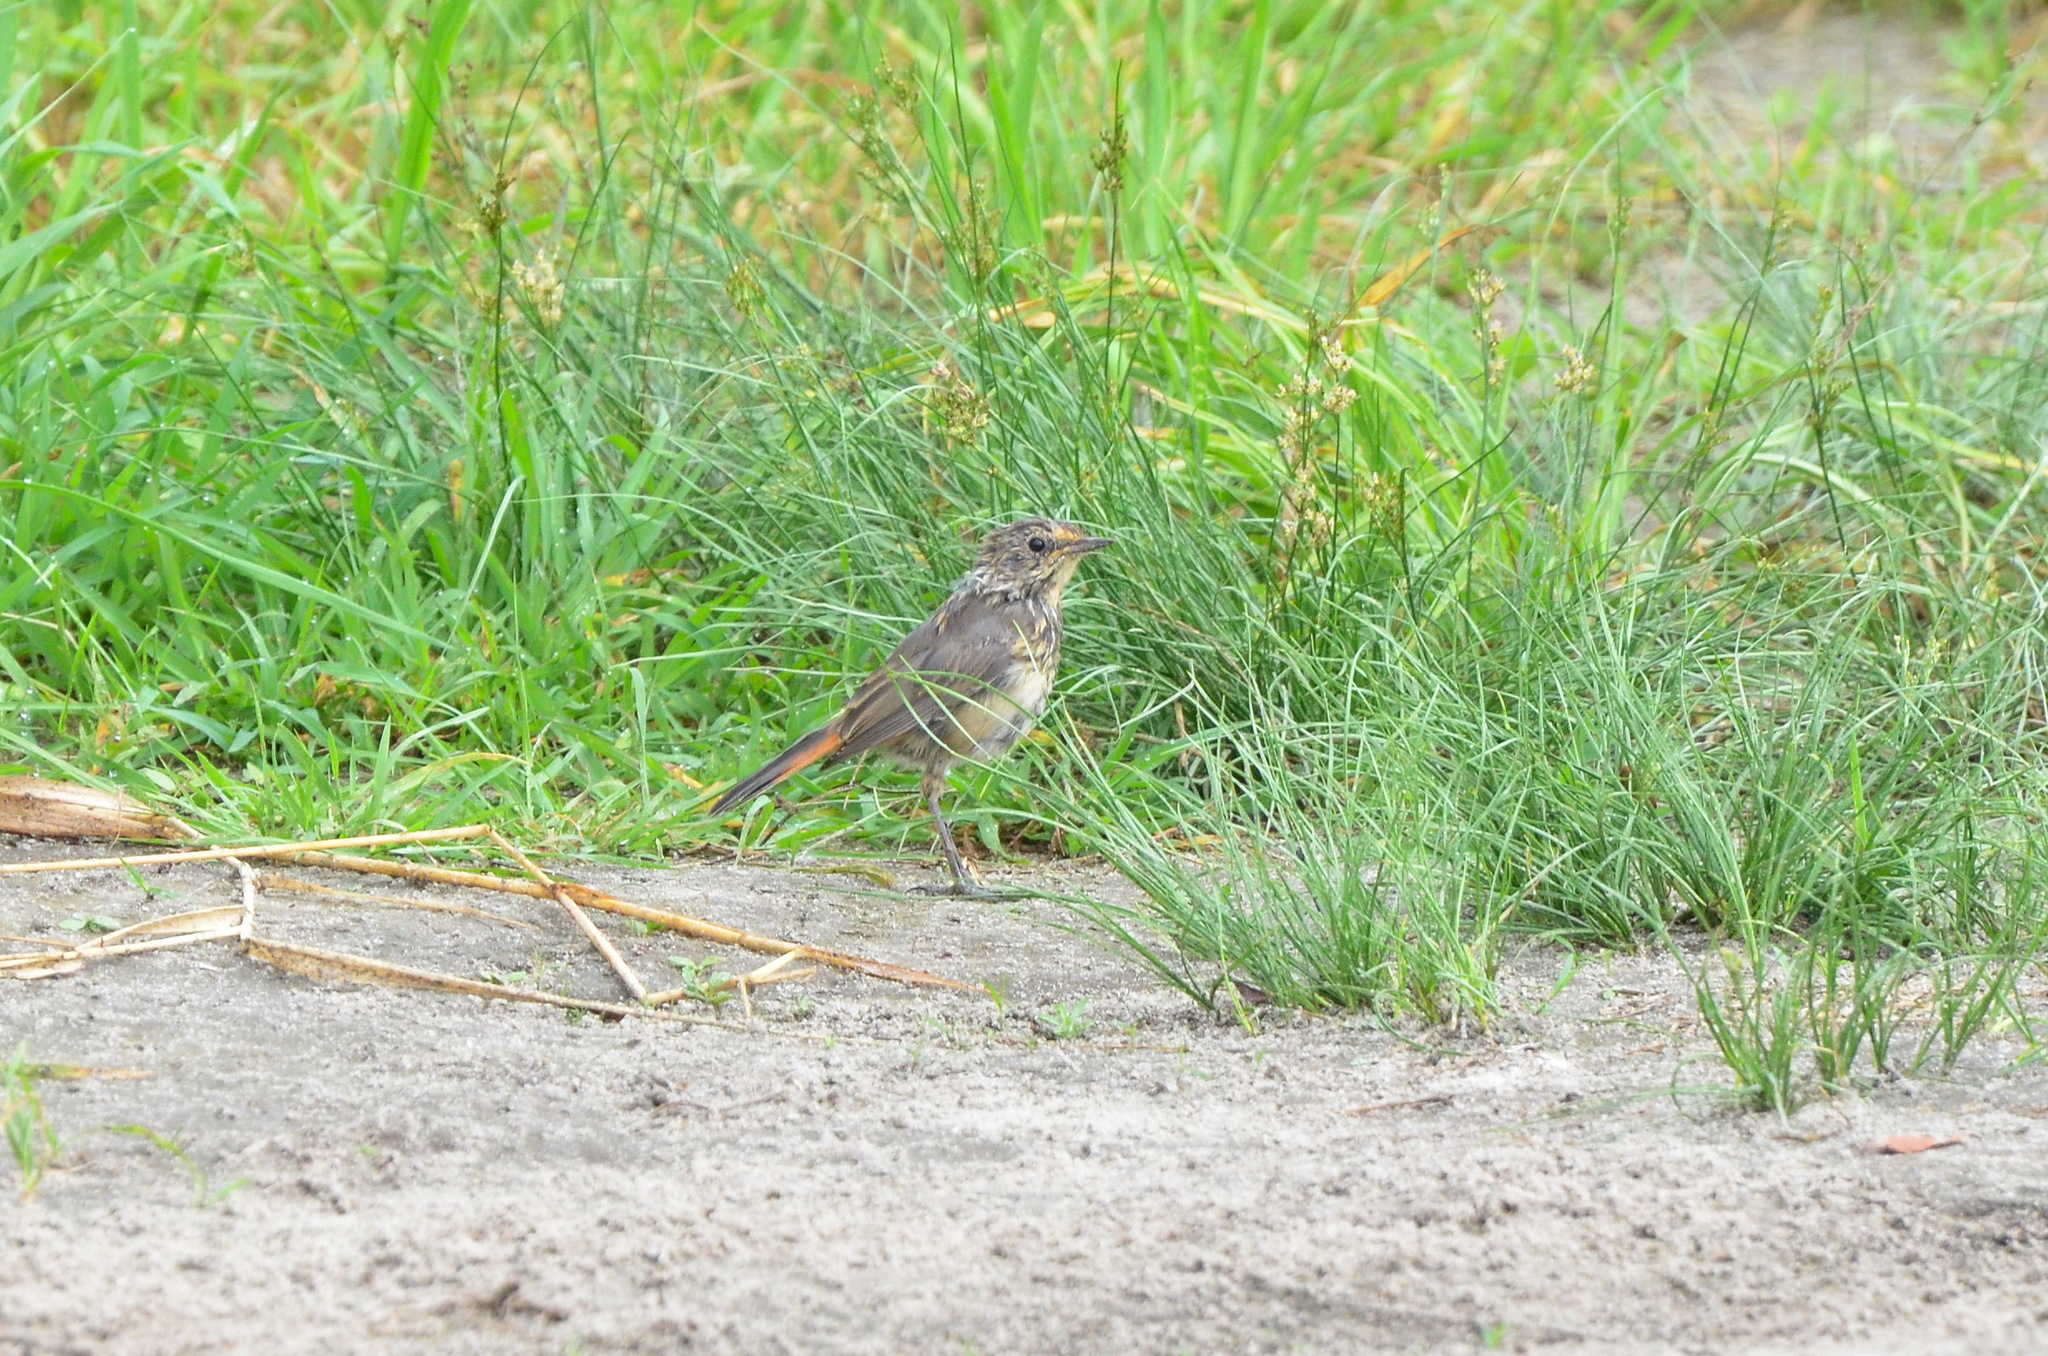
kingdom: Animalia
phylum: Chordata
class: Aves
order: Passeriformes
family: Muscicapidae
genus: Luscinia
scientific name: Luscinia svecica
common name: Bluethroat
